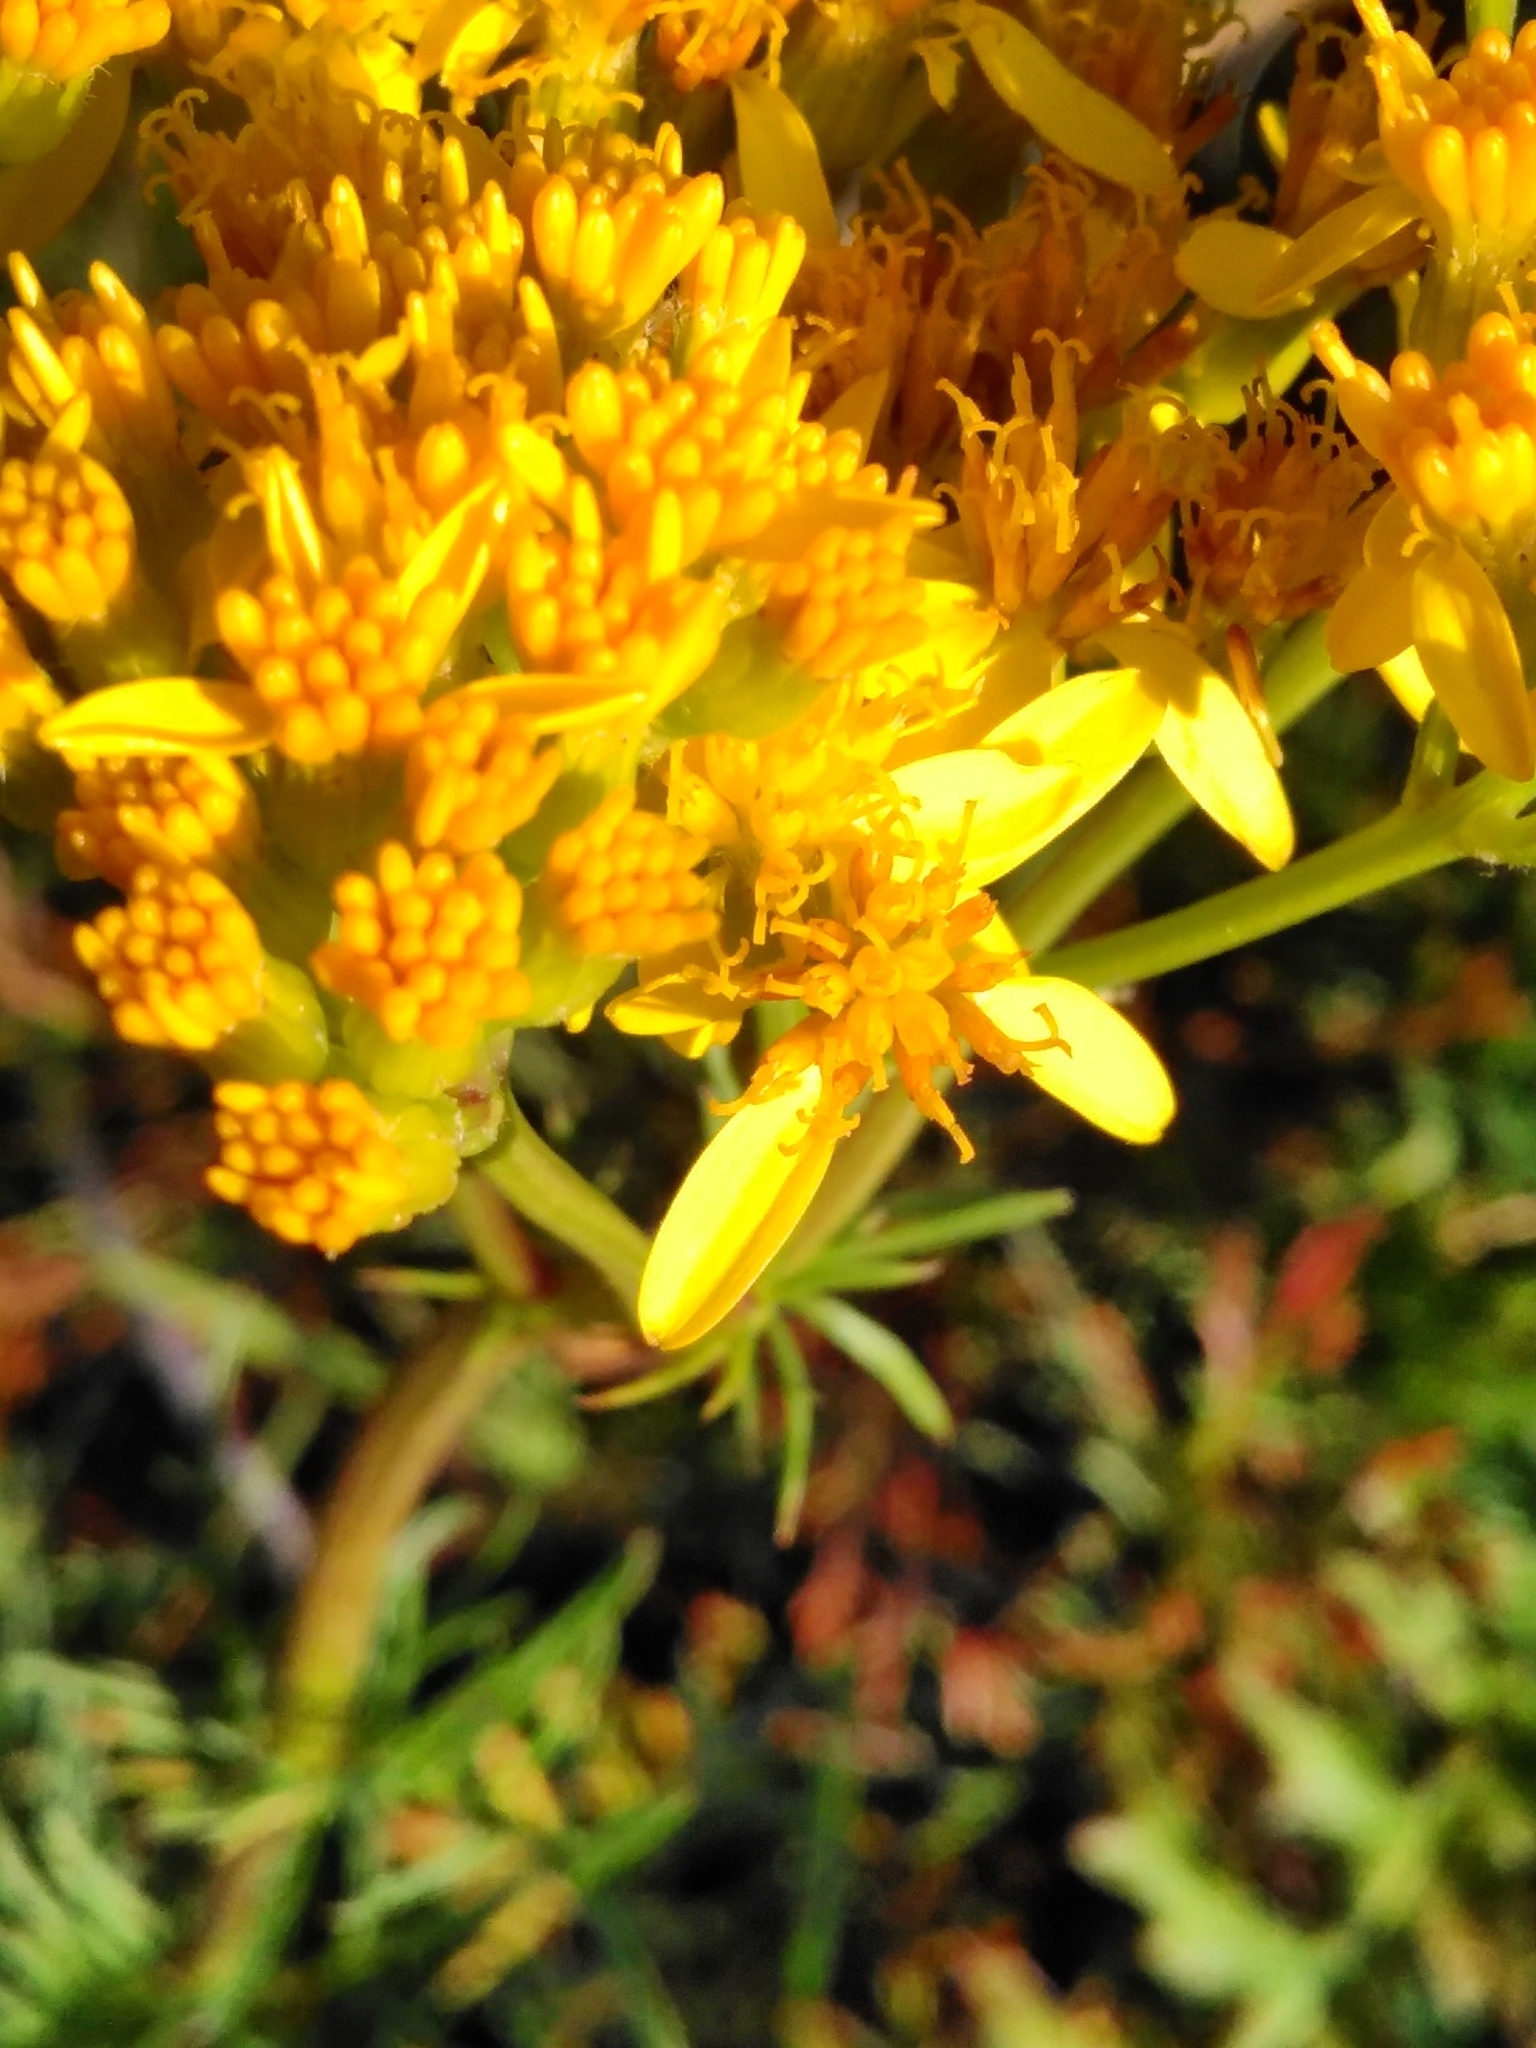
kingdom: Plantae
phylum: Tracheophyta
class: Magnoliopsida
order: Asterales
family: Asteraceae
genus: Jacobaea
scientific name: Jacobaea adonidifolia
